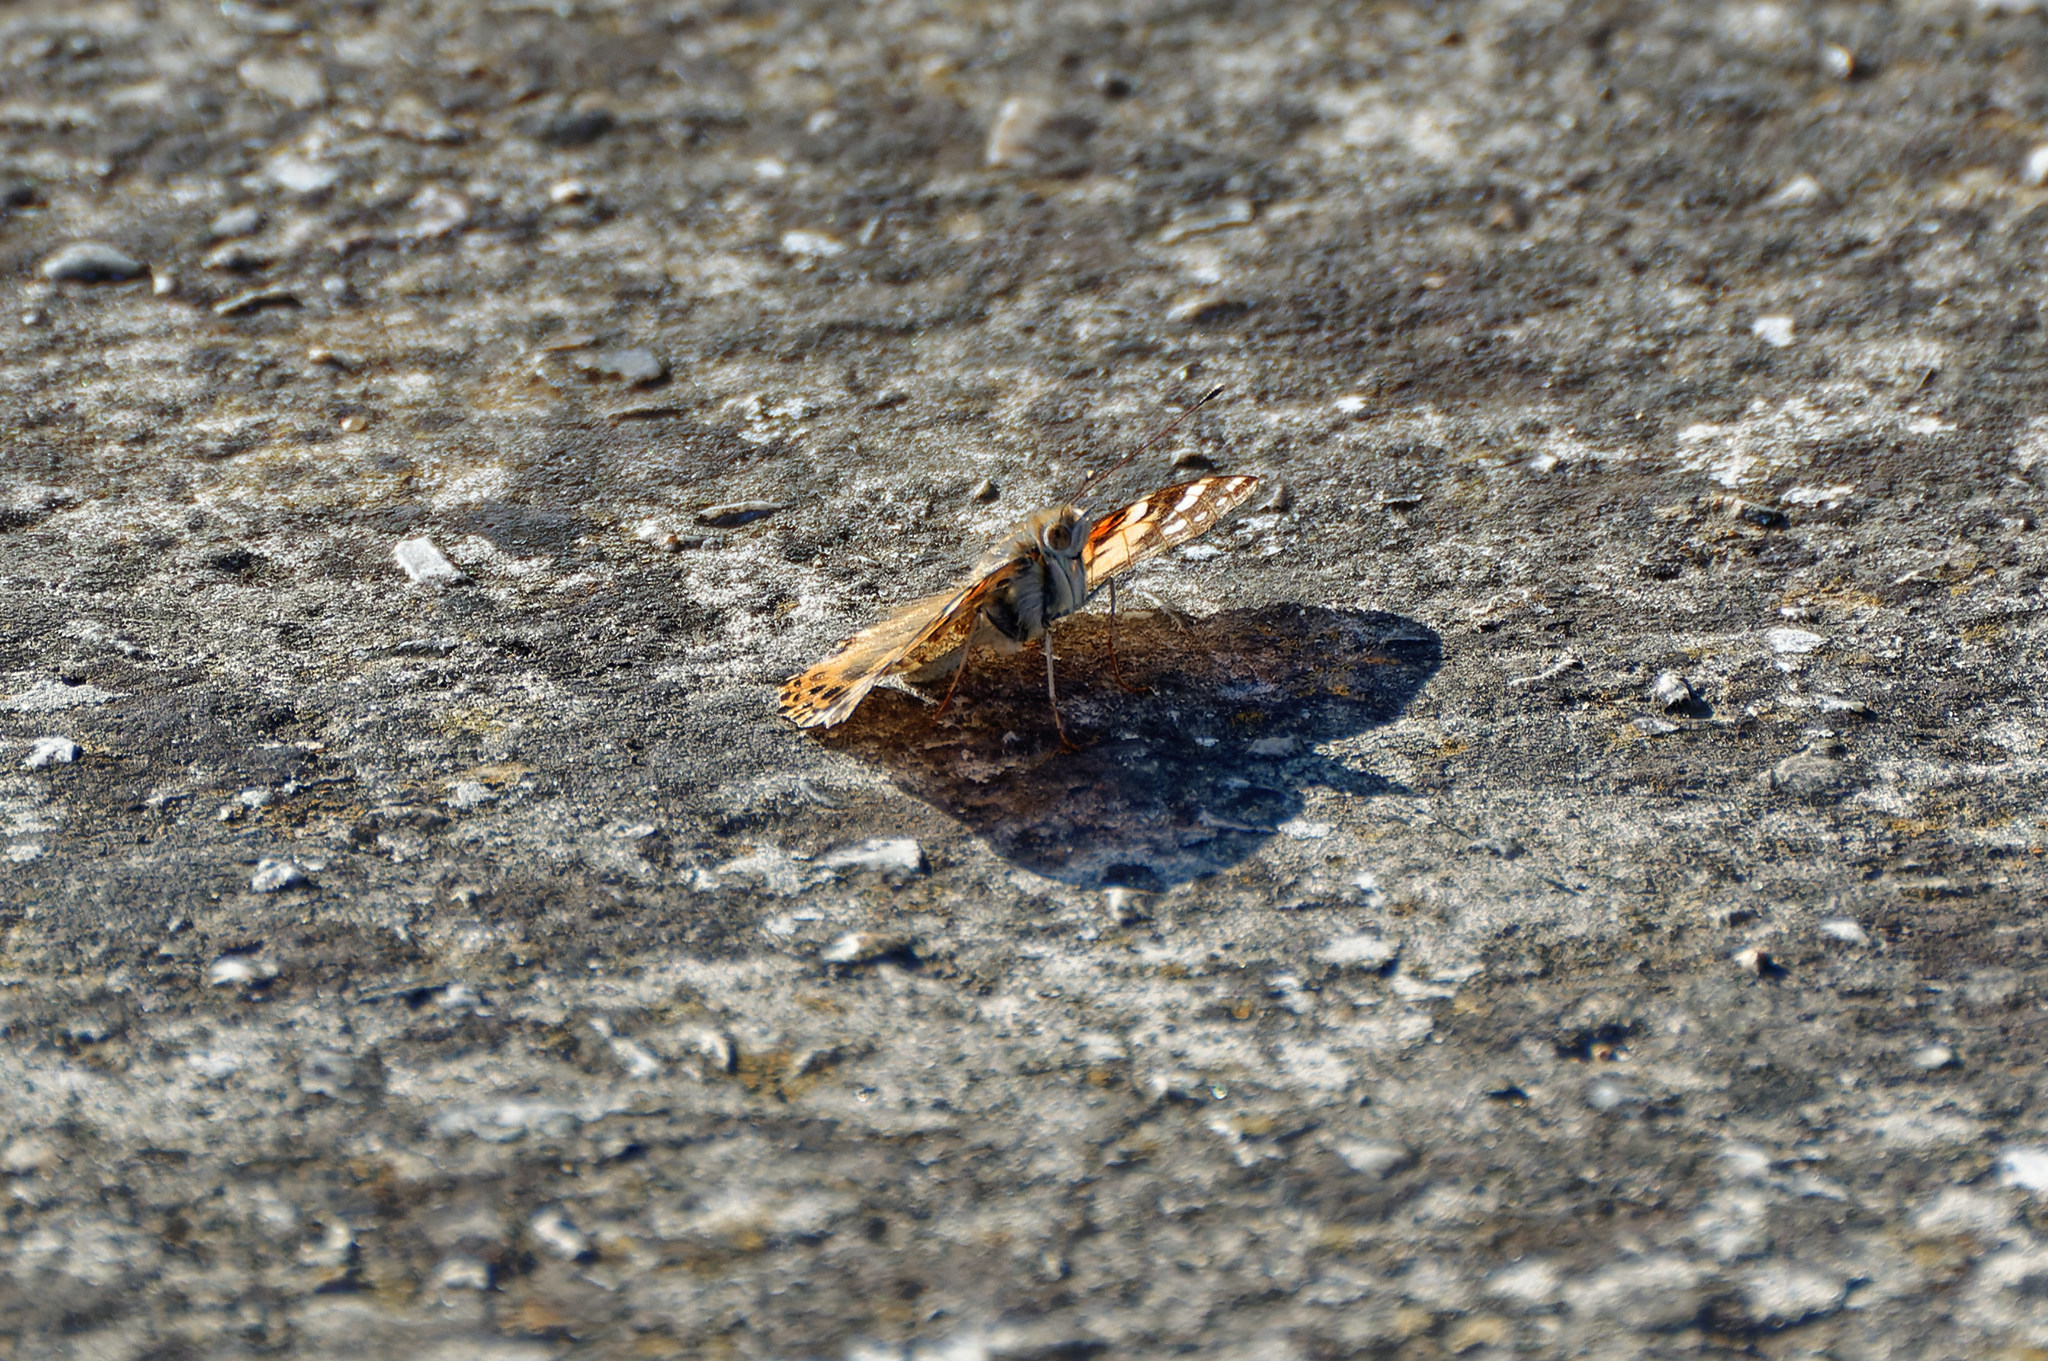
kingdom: Animalia
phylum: Arthropoda
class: Insecta
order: Lepidoptera
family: Nymphalidae
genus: Vanessa
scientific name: Vanessa cardui
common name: Painted lady
